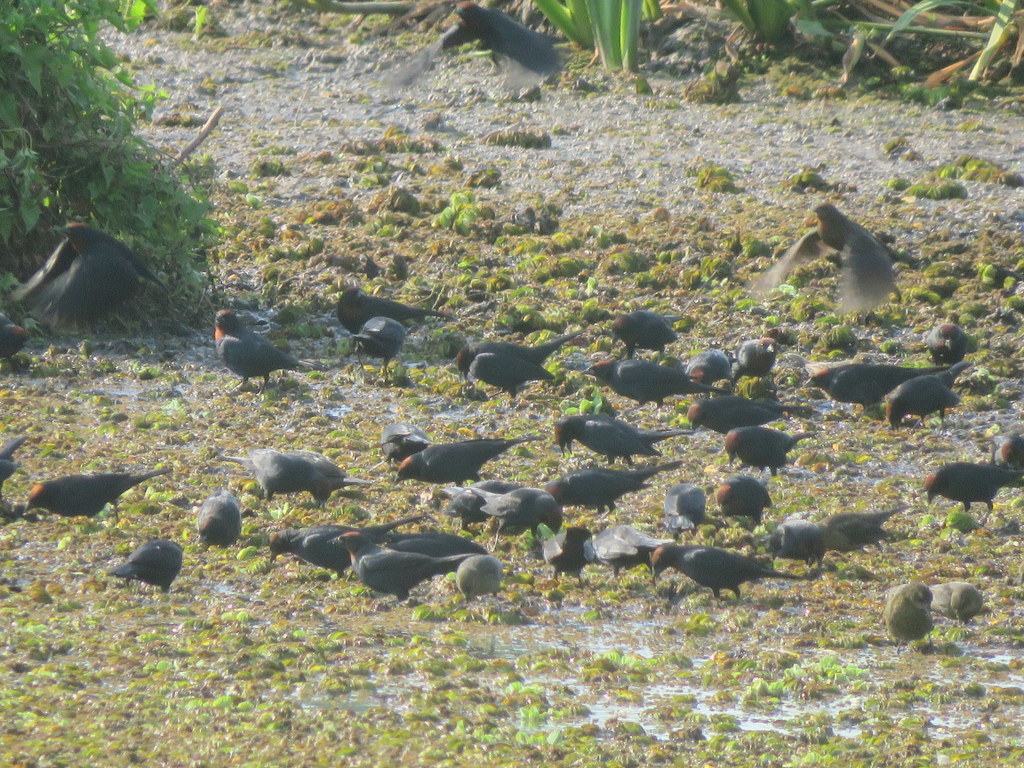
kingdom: Animalia
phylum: Chordata
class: Aves
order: Passeriformes
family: Icteridae
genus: Chrysomus
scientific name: Chrysomus ruficapillus
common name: Chestnut-capped blackbird
